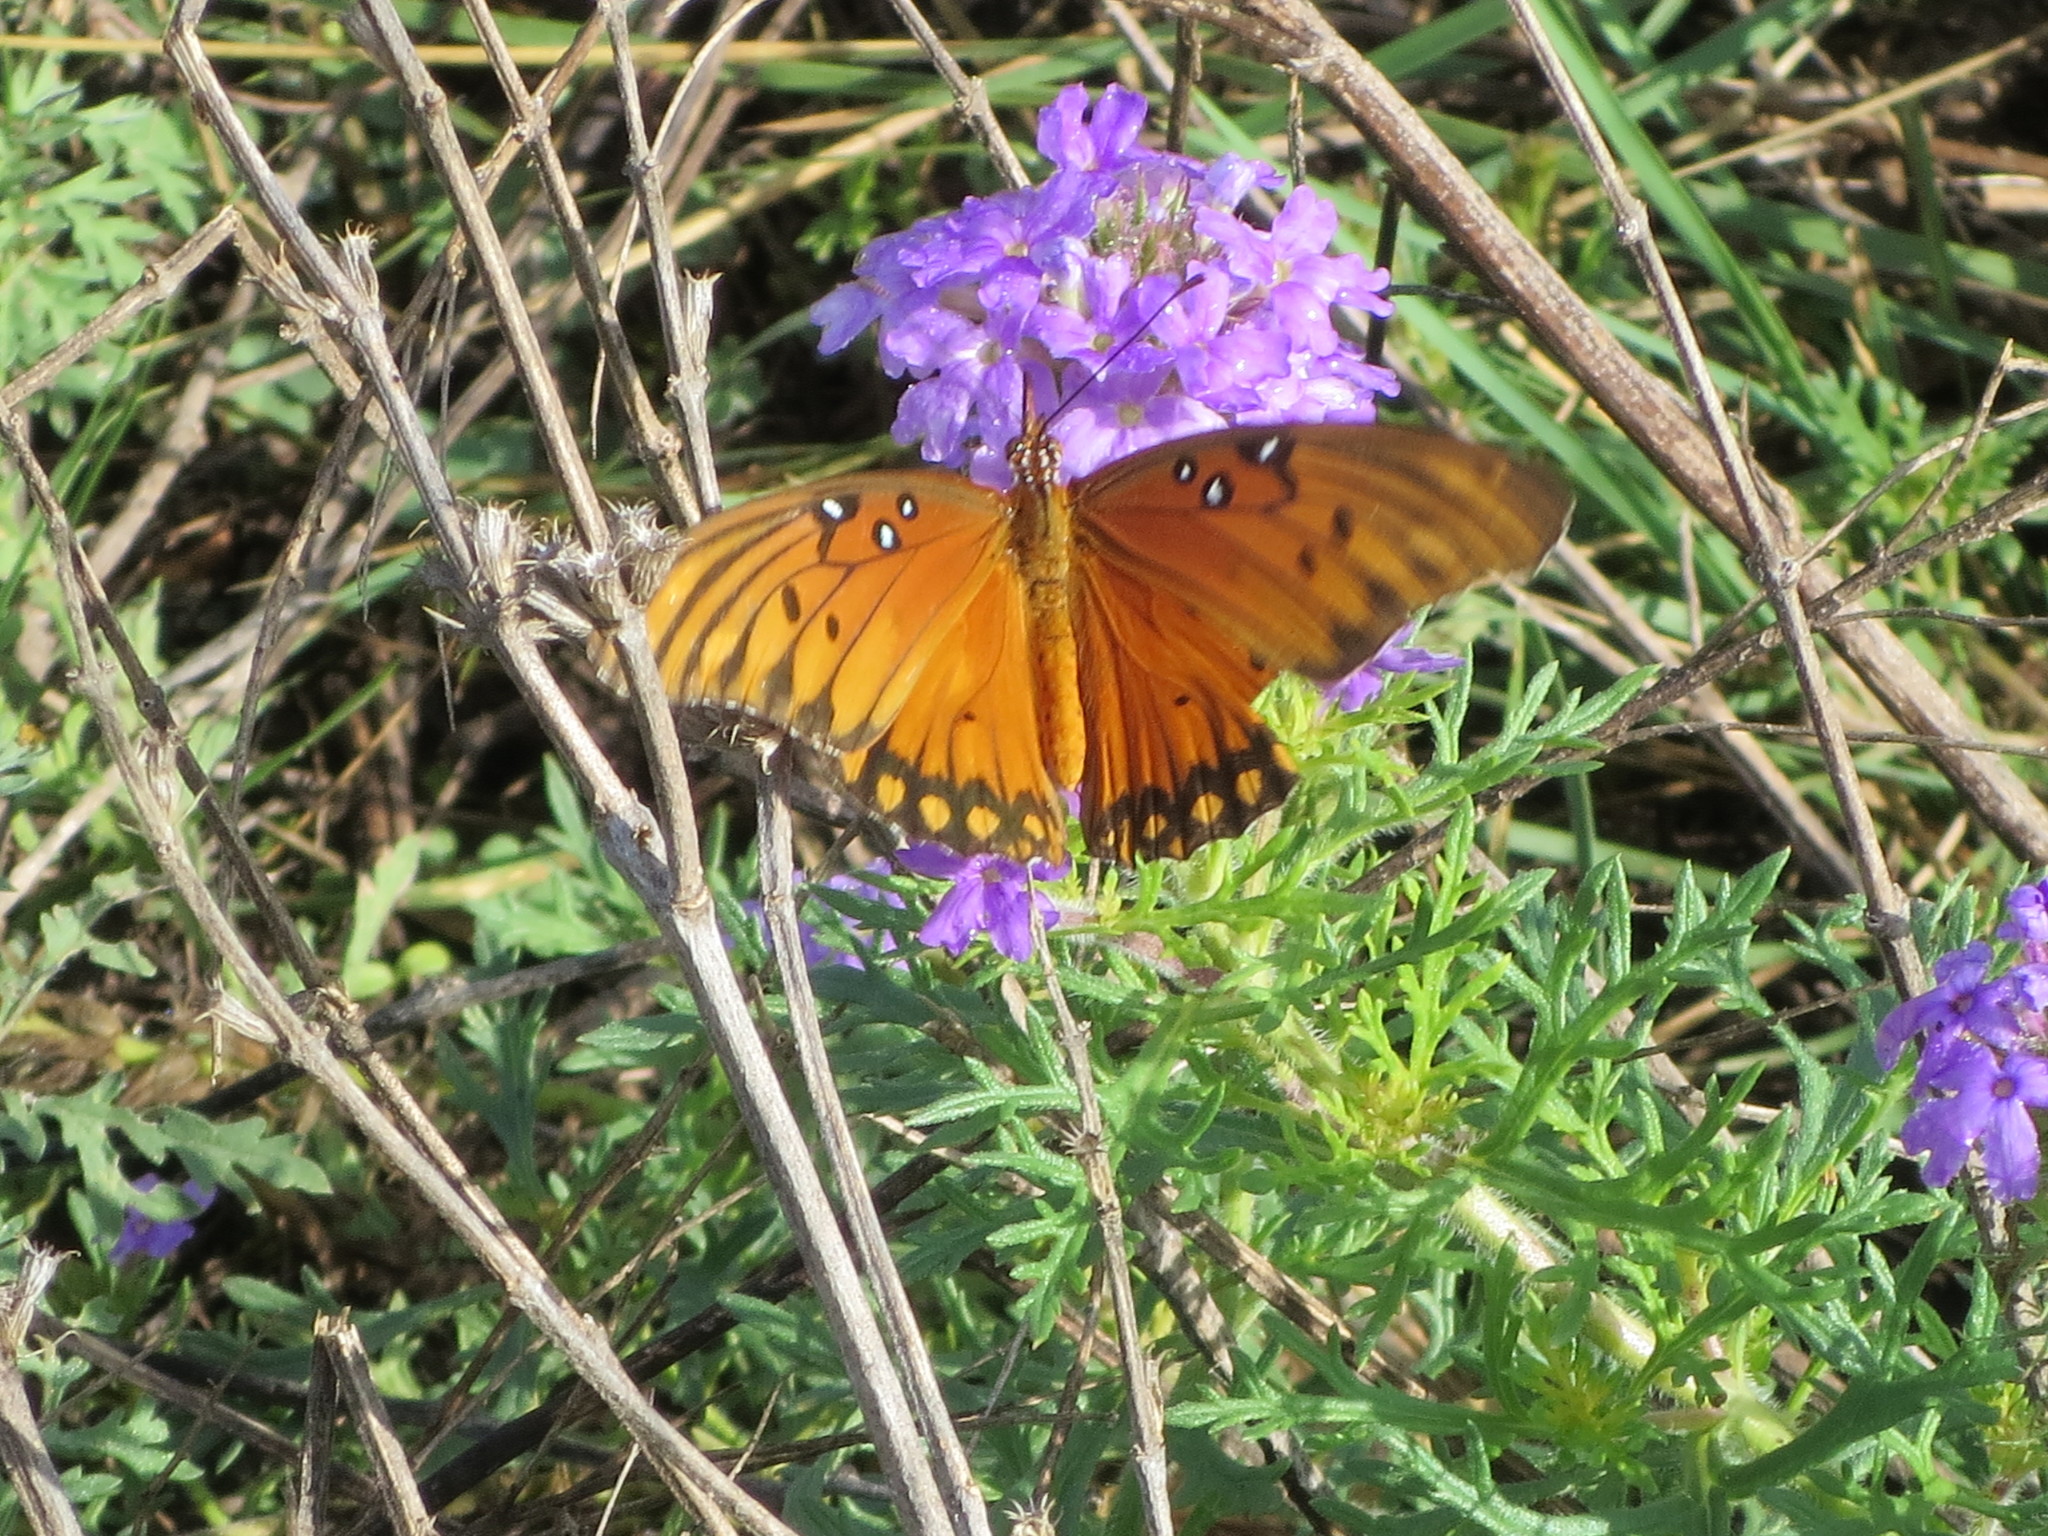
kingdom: Animalia
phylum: Arthropoda
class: Insecta
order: Lepidoptera
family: Nymphalidae
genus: Dione
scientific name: Dione vanillae
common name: Gulf fritillary
